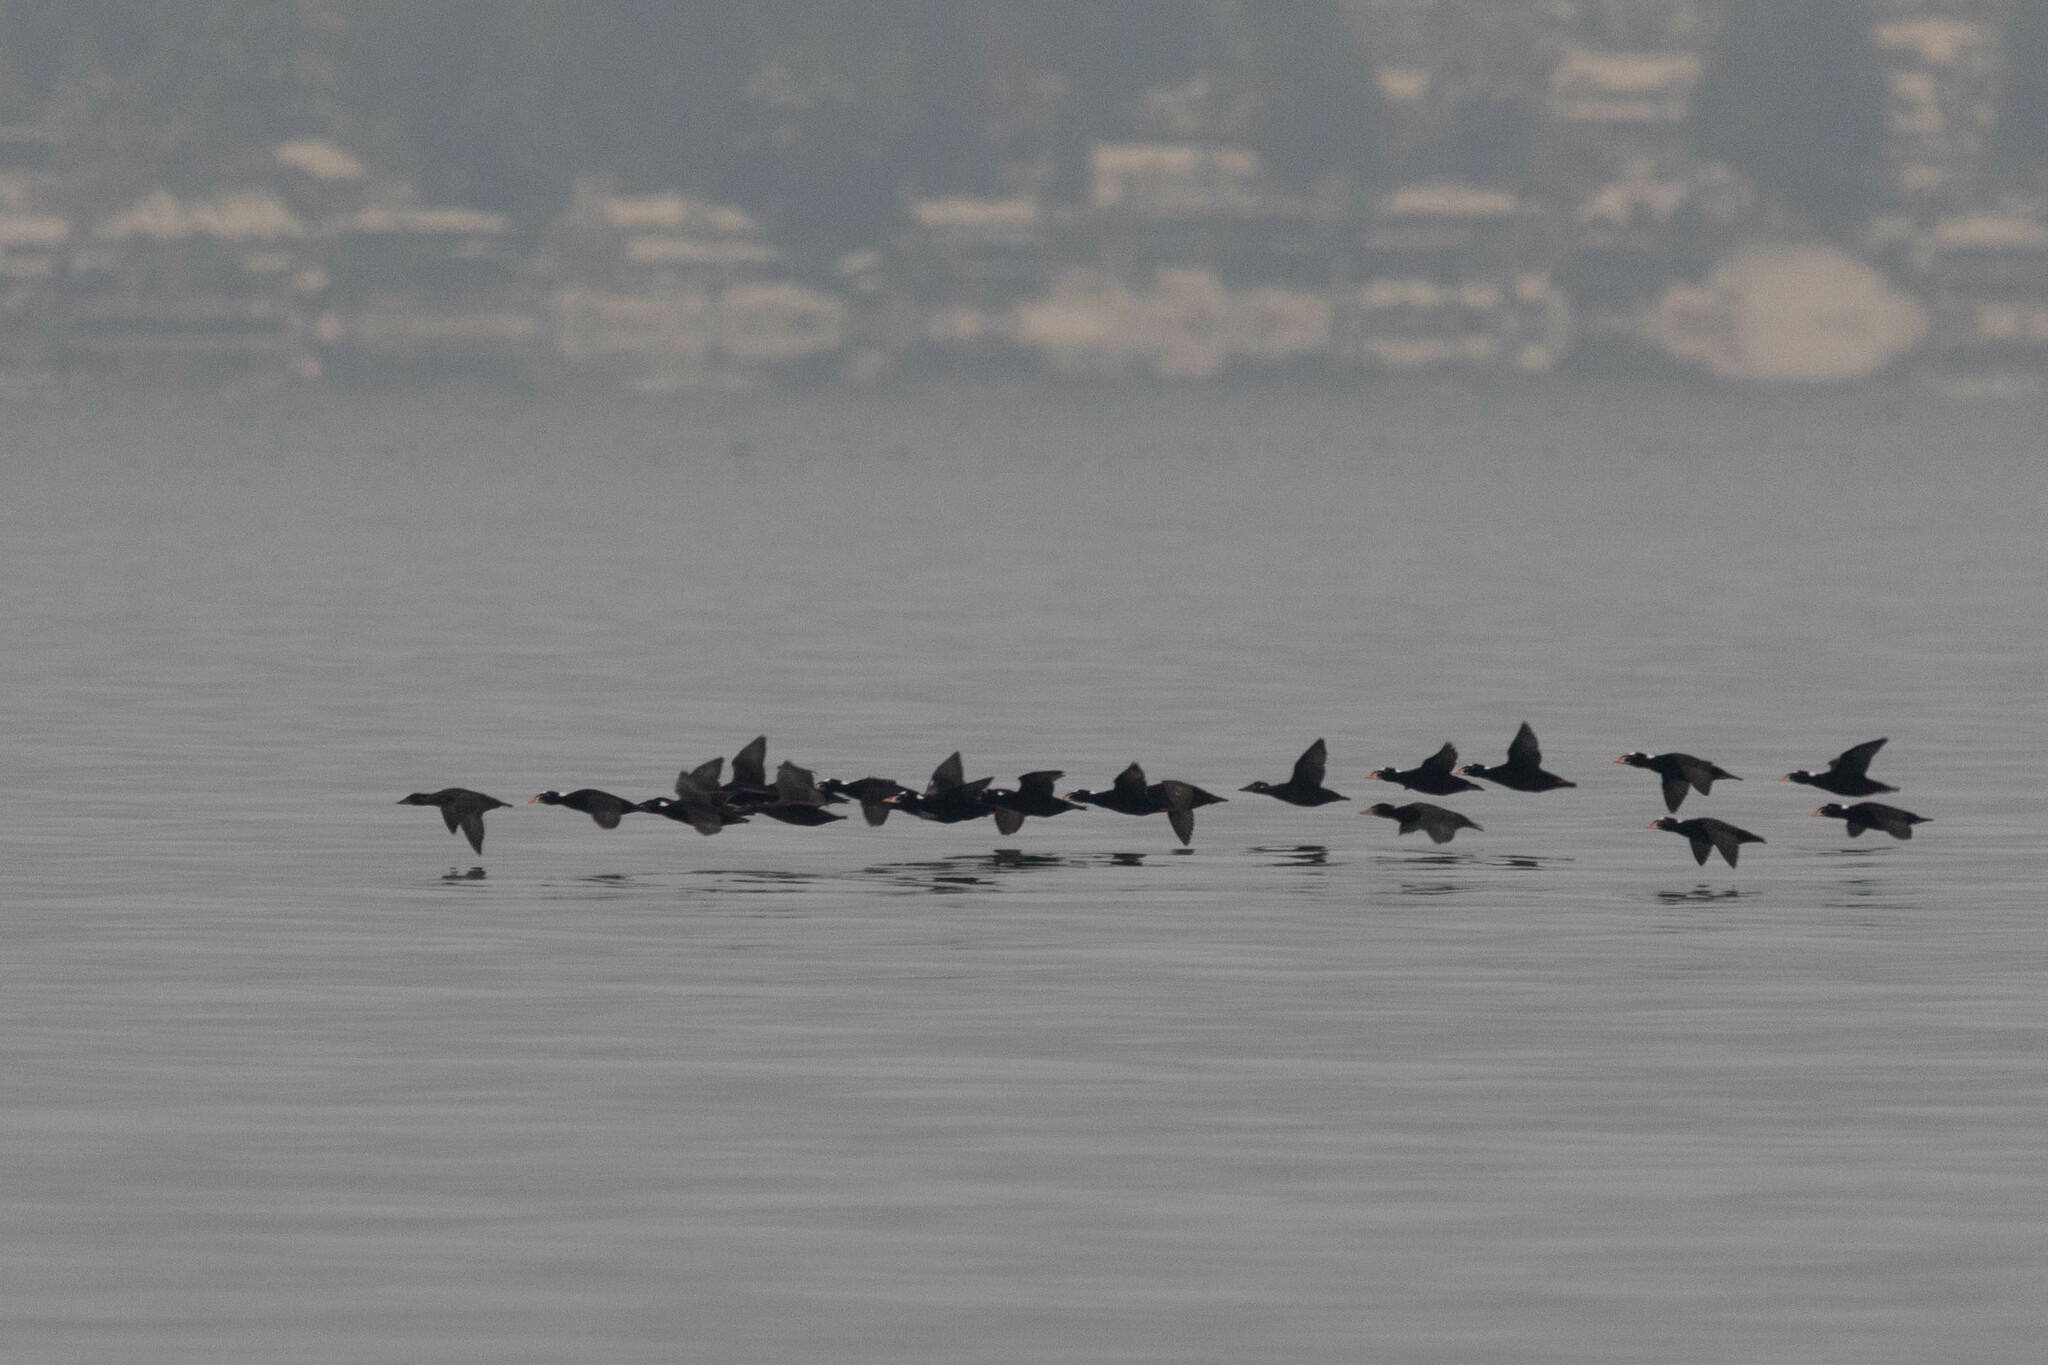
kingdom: Animalia
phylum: Chordata
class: Aves
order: Anseriformes
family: Anatidae
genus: Melanitta
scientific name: Melanitta perspicillata
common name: Surf scoter
